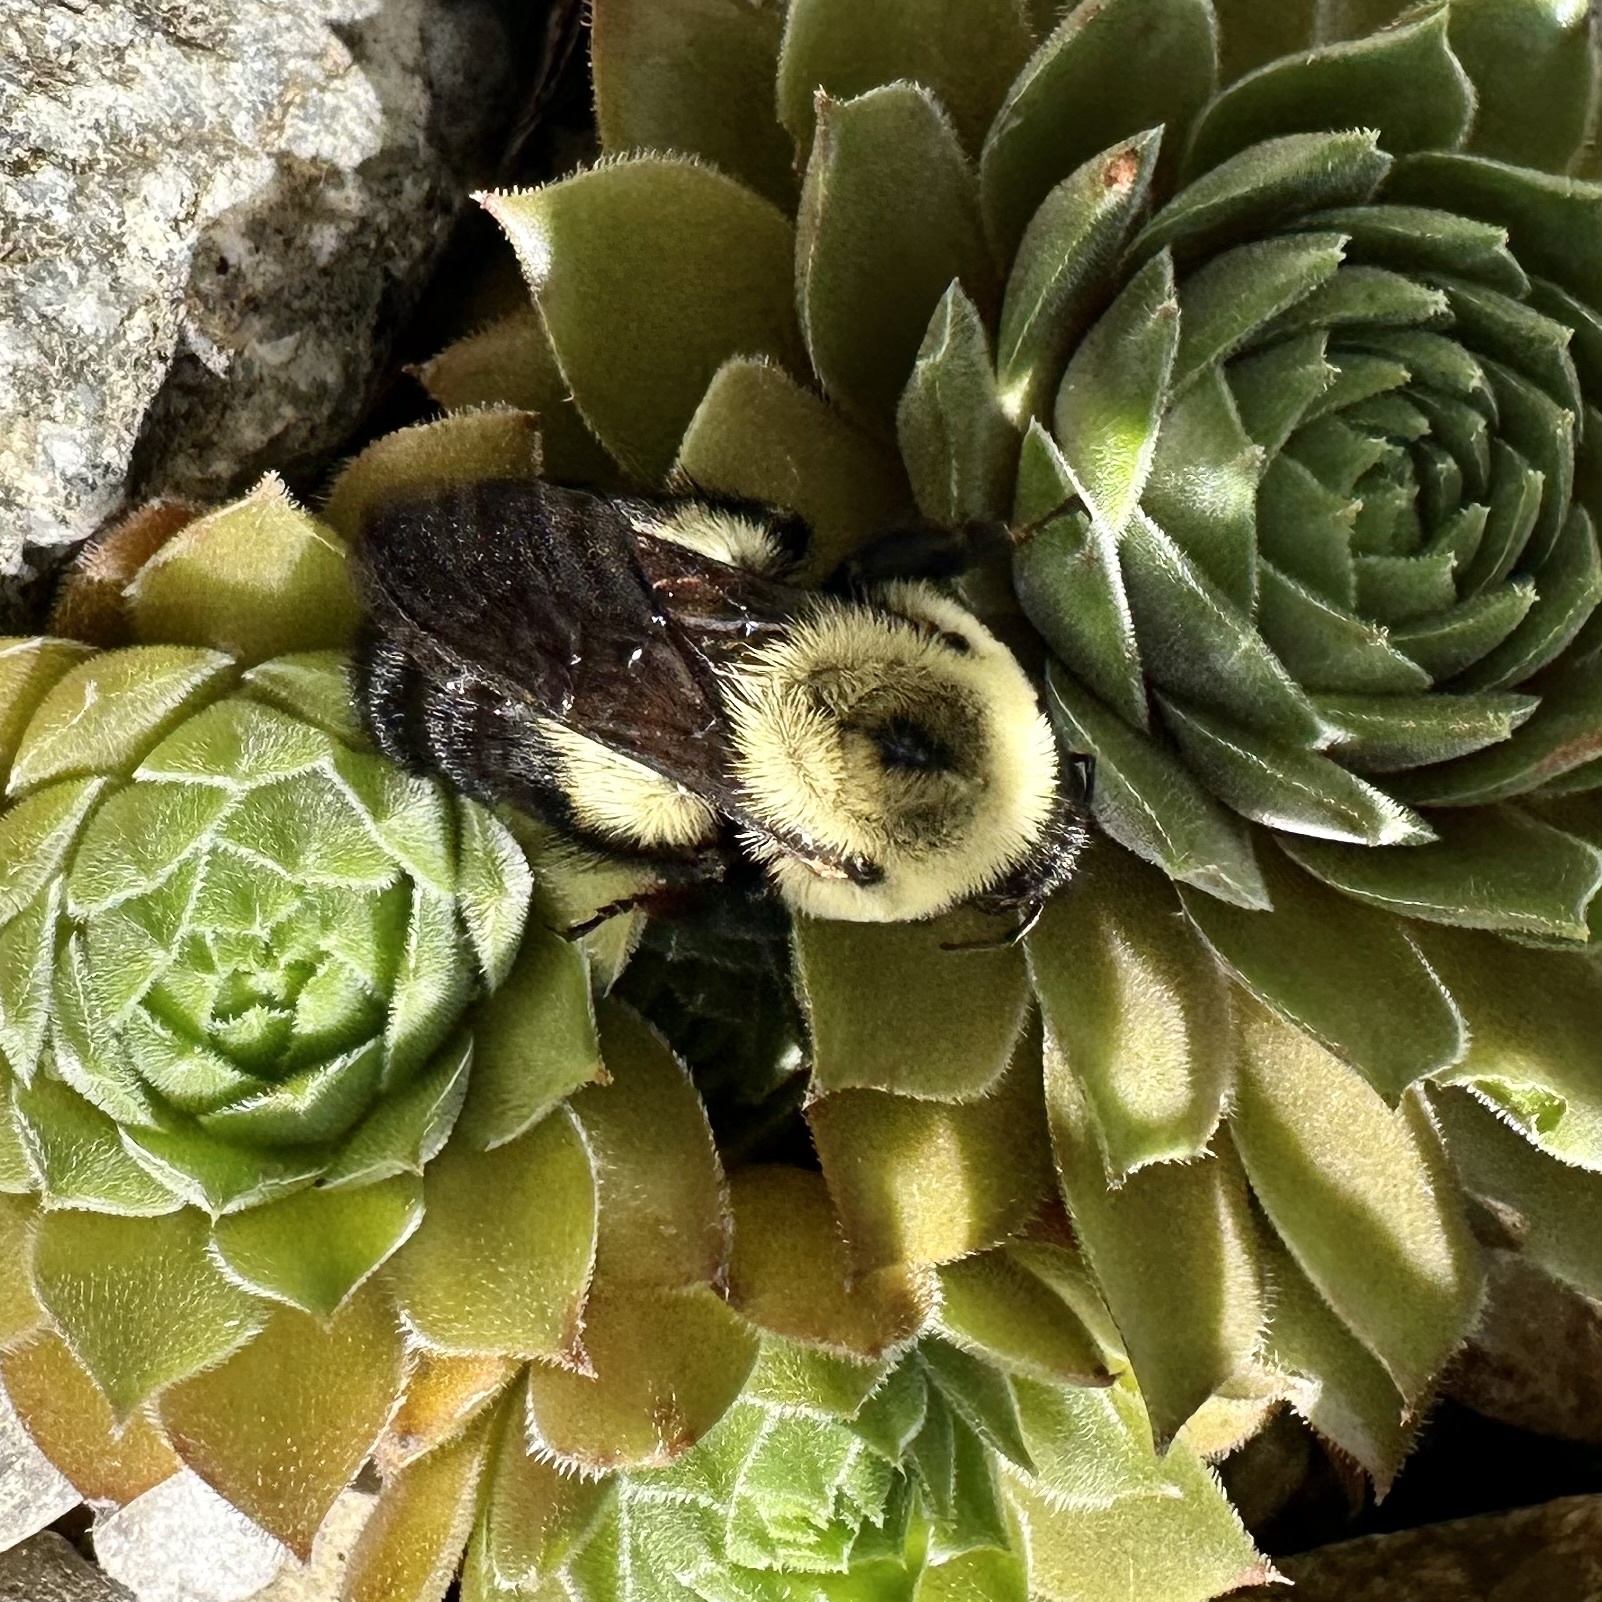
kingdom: Animalia
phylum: Arthropoda
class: Insecta
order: Hymenoptera
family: Apidae
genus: Bombus
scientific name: Bombus griseocollis
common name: Brown-belted bumble bee
